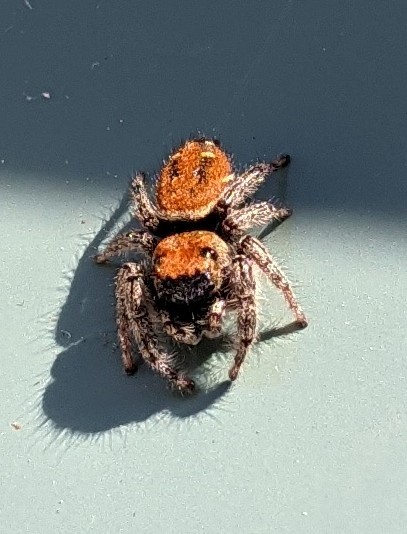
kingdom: Animalia
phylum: Arthropoda
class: Arachnida
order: Araneae
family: Salticidae
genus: Phidippus
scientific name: Phidippus whitmani
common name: Whitman's jumping spider
